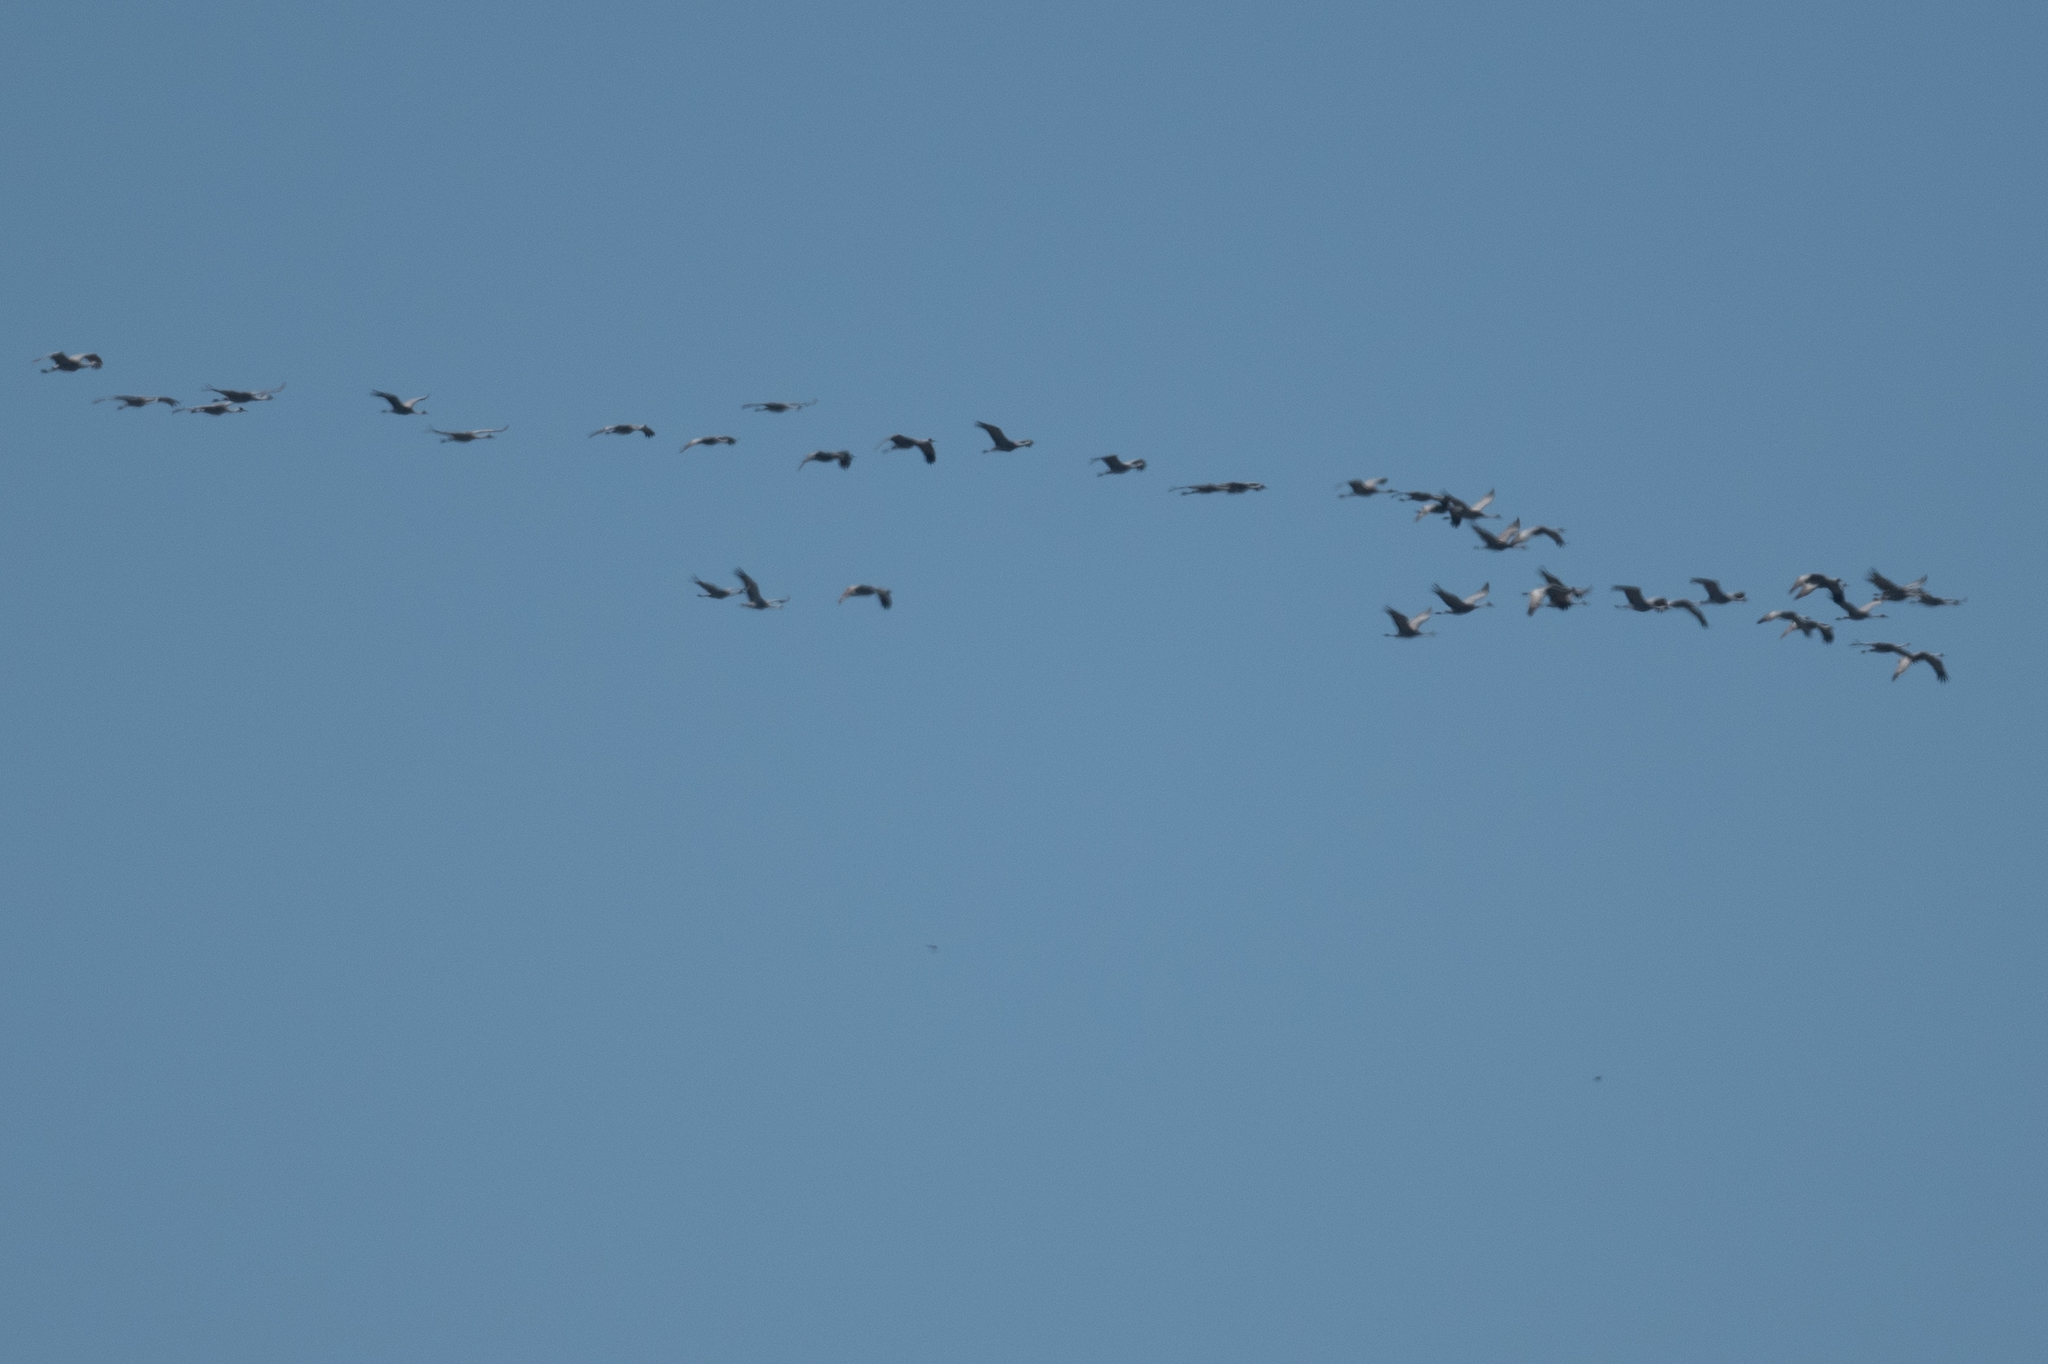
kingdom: Animalia
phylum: Chordata
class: Aves
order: Gruiformes
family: Gruidae
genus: Grus
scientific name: Grus canadensis
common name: Sandhill crane
